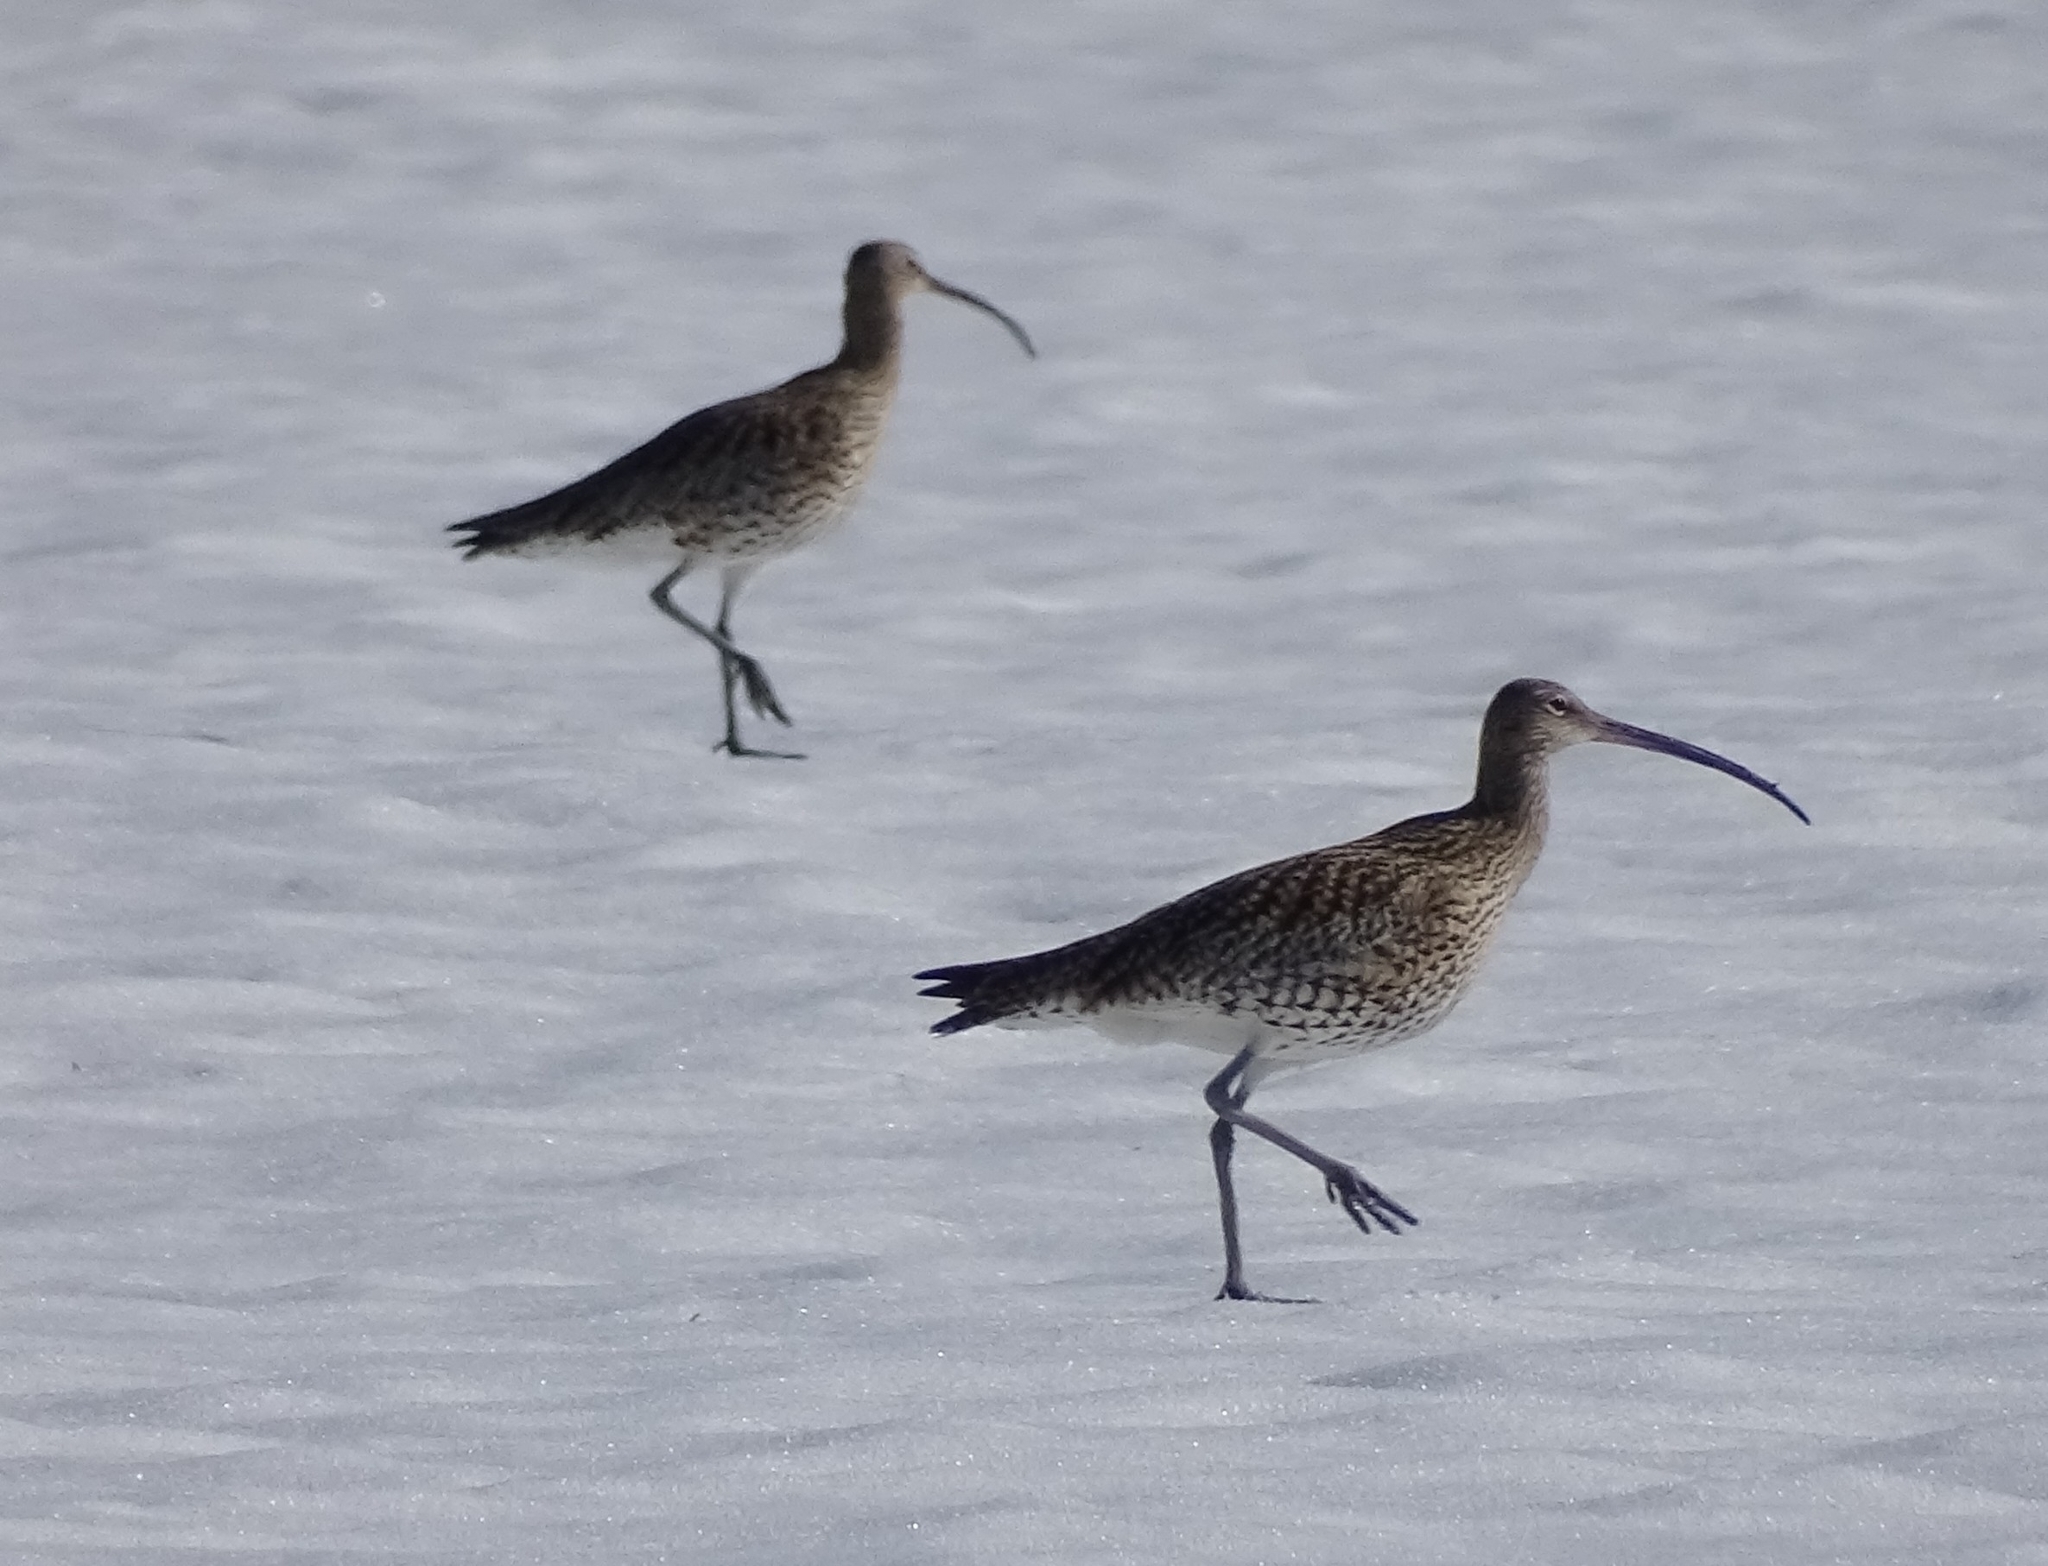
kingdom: Animalia
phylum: Chordata
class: Aves
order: Charadriiformes
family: Scolopacidae
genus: Numenius
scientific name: Numenius arquata
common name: Eurasian curlew
